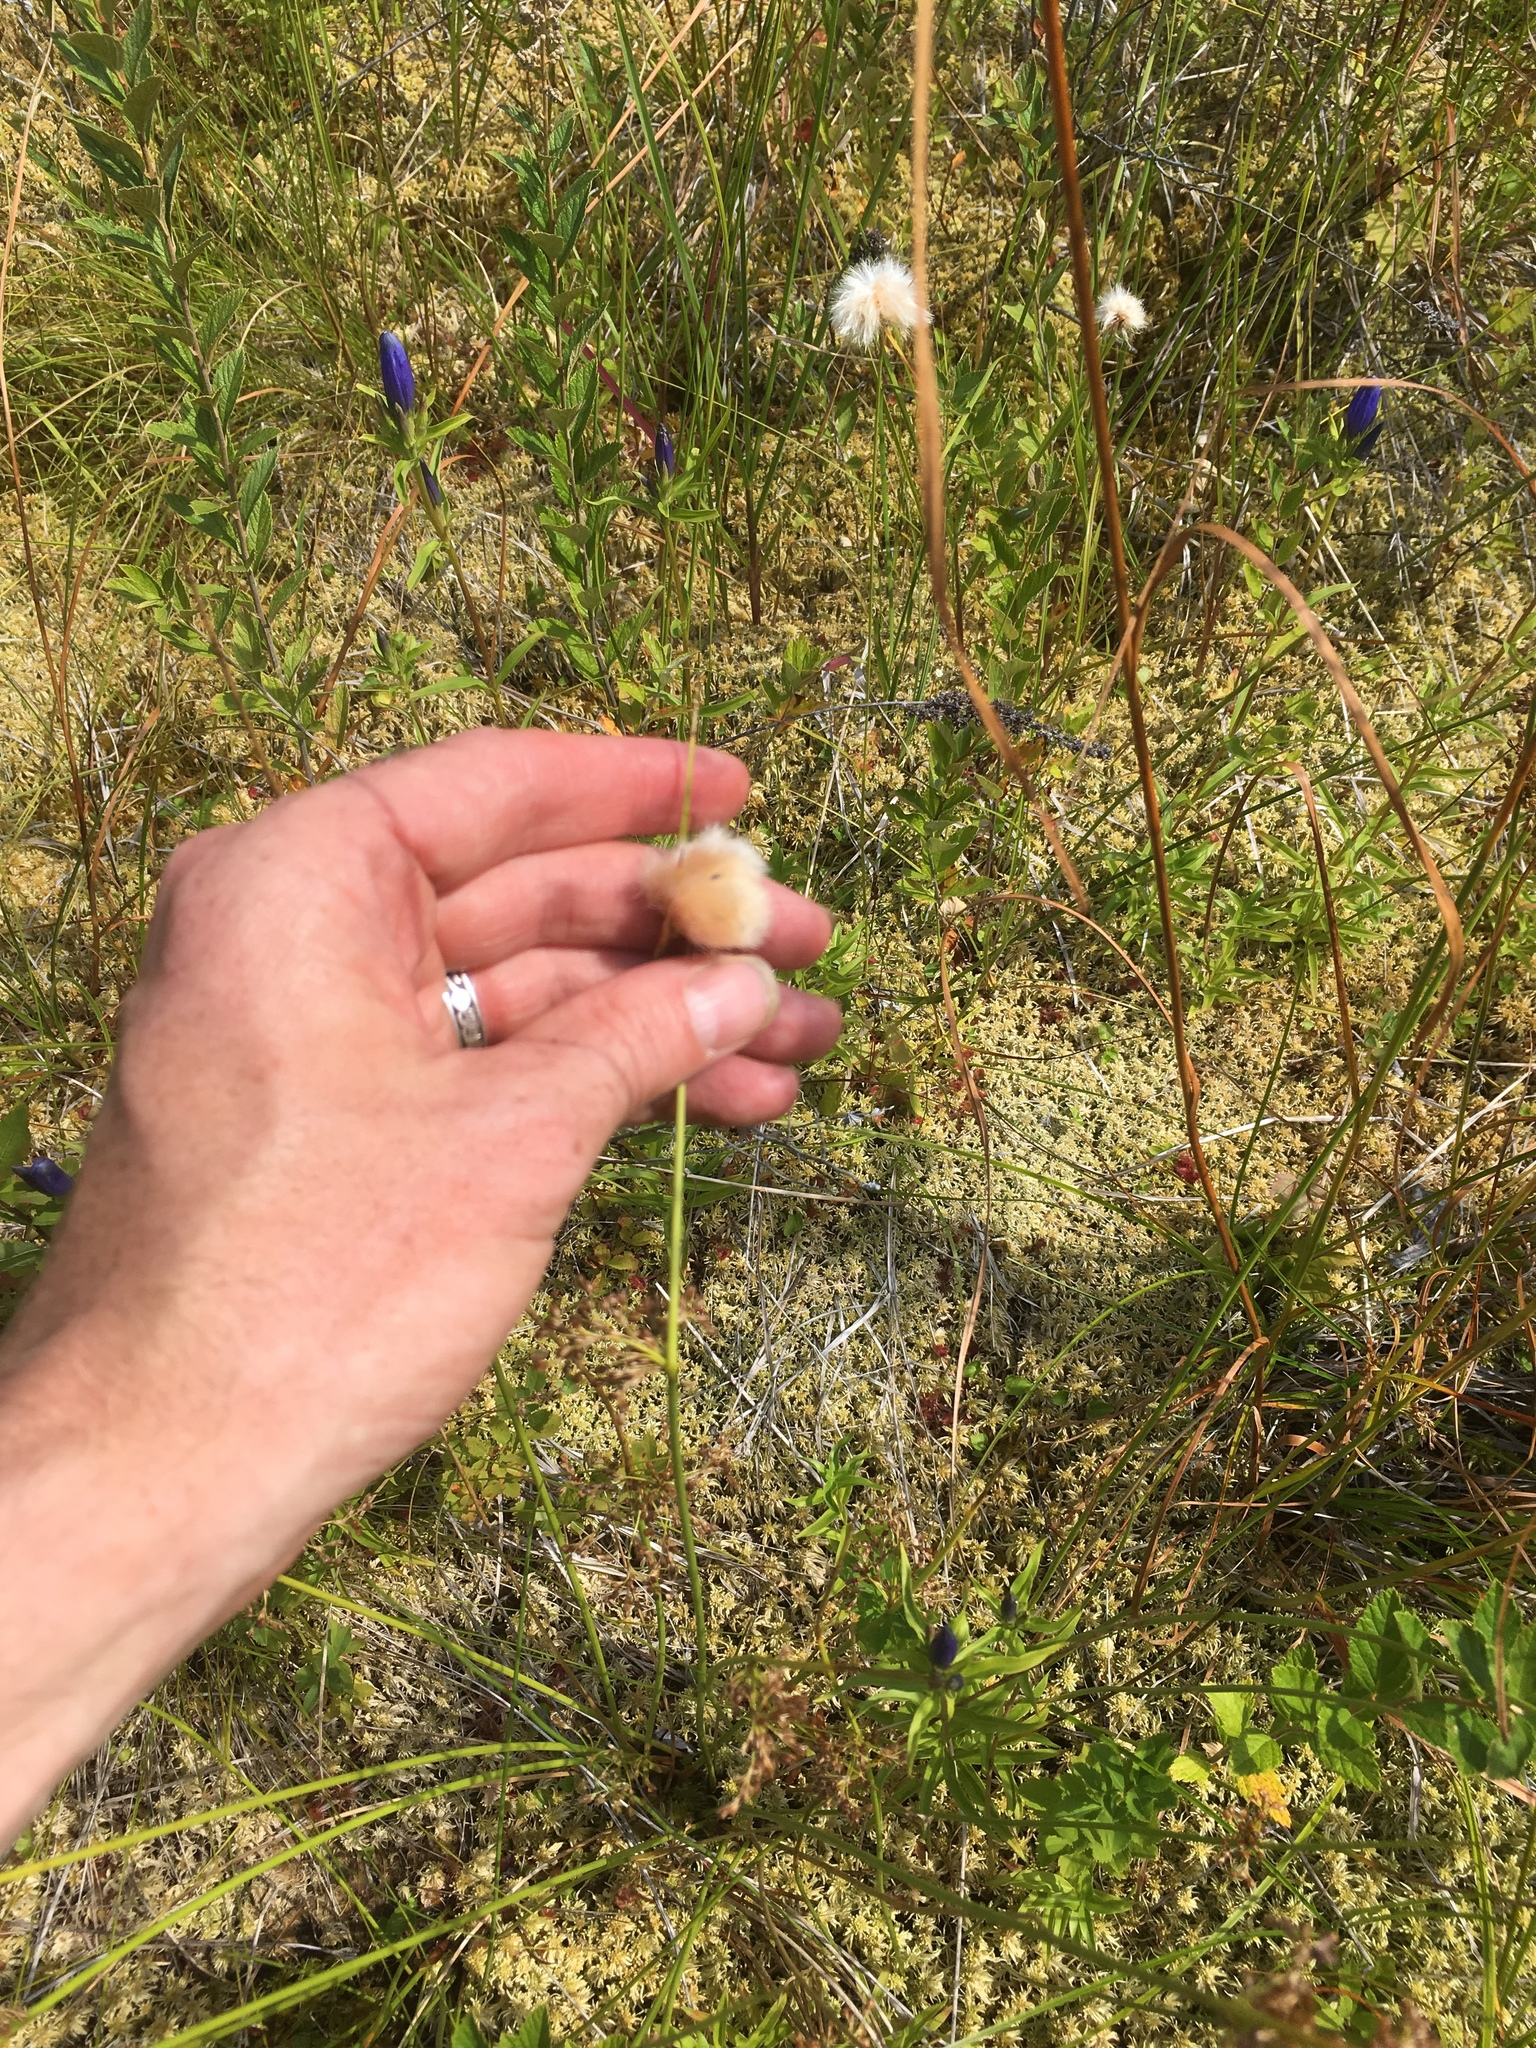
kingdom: Plantae
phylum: Tracheophyta
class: Liliopsida
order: Poales
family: Cyperaceae
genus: Eriophorum
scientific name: Eriophorum virginicum
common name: Tawny cottongrass
